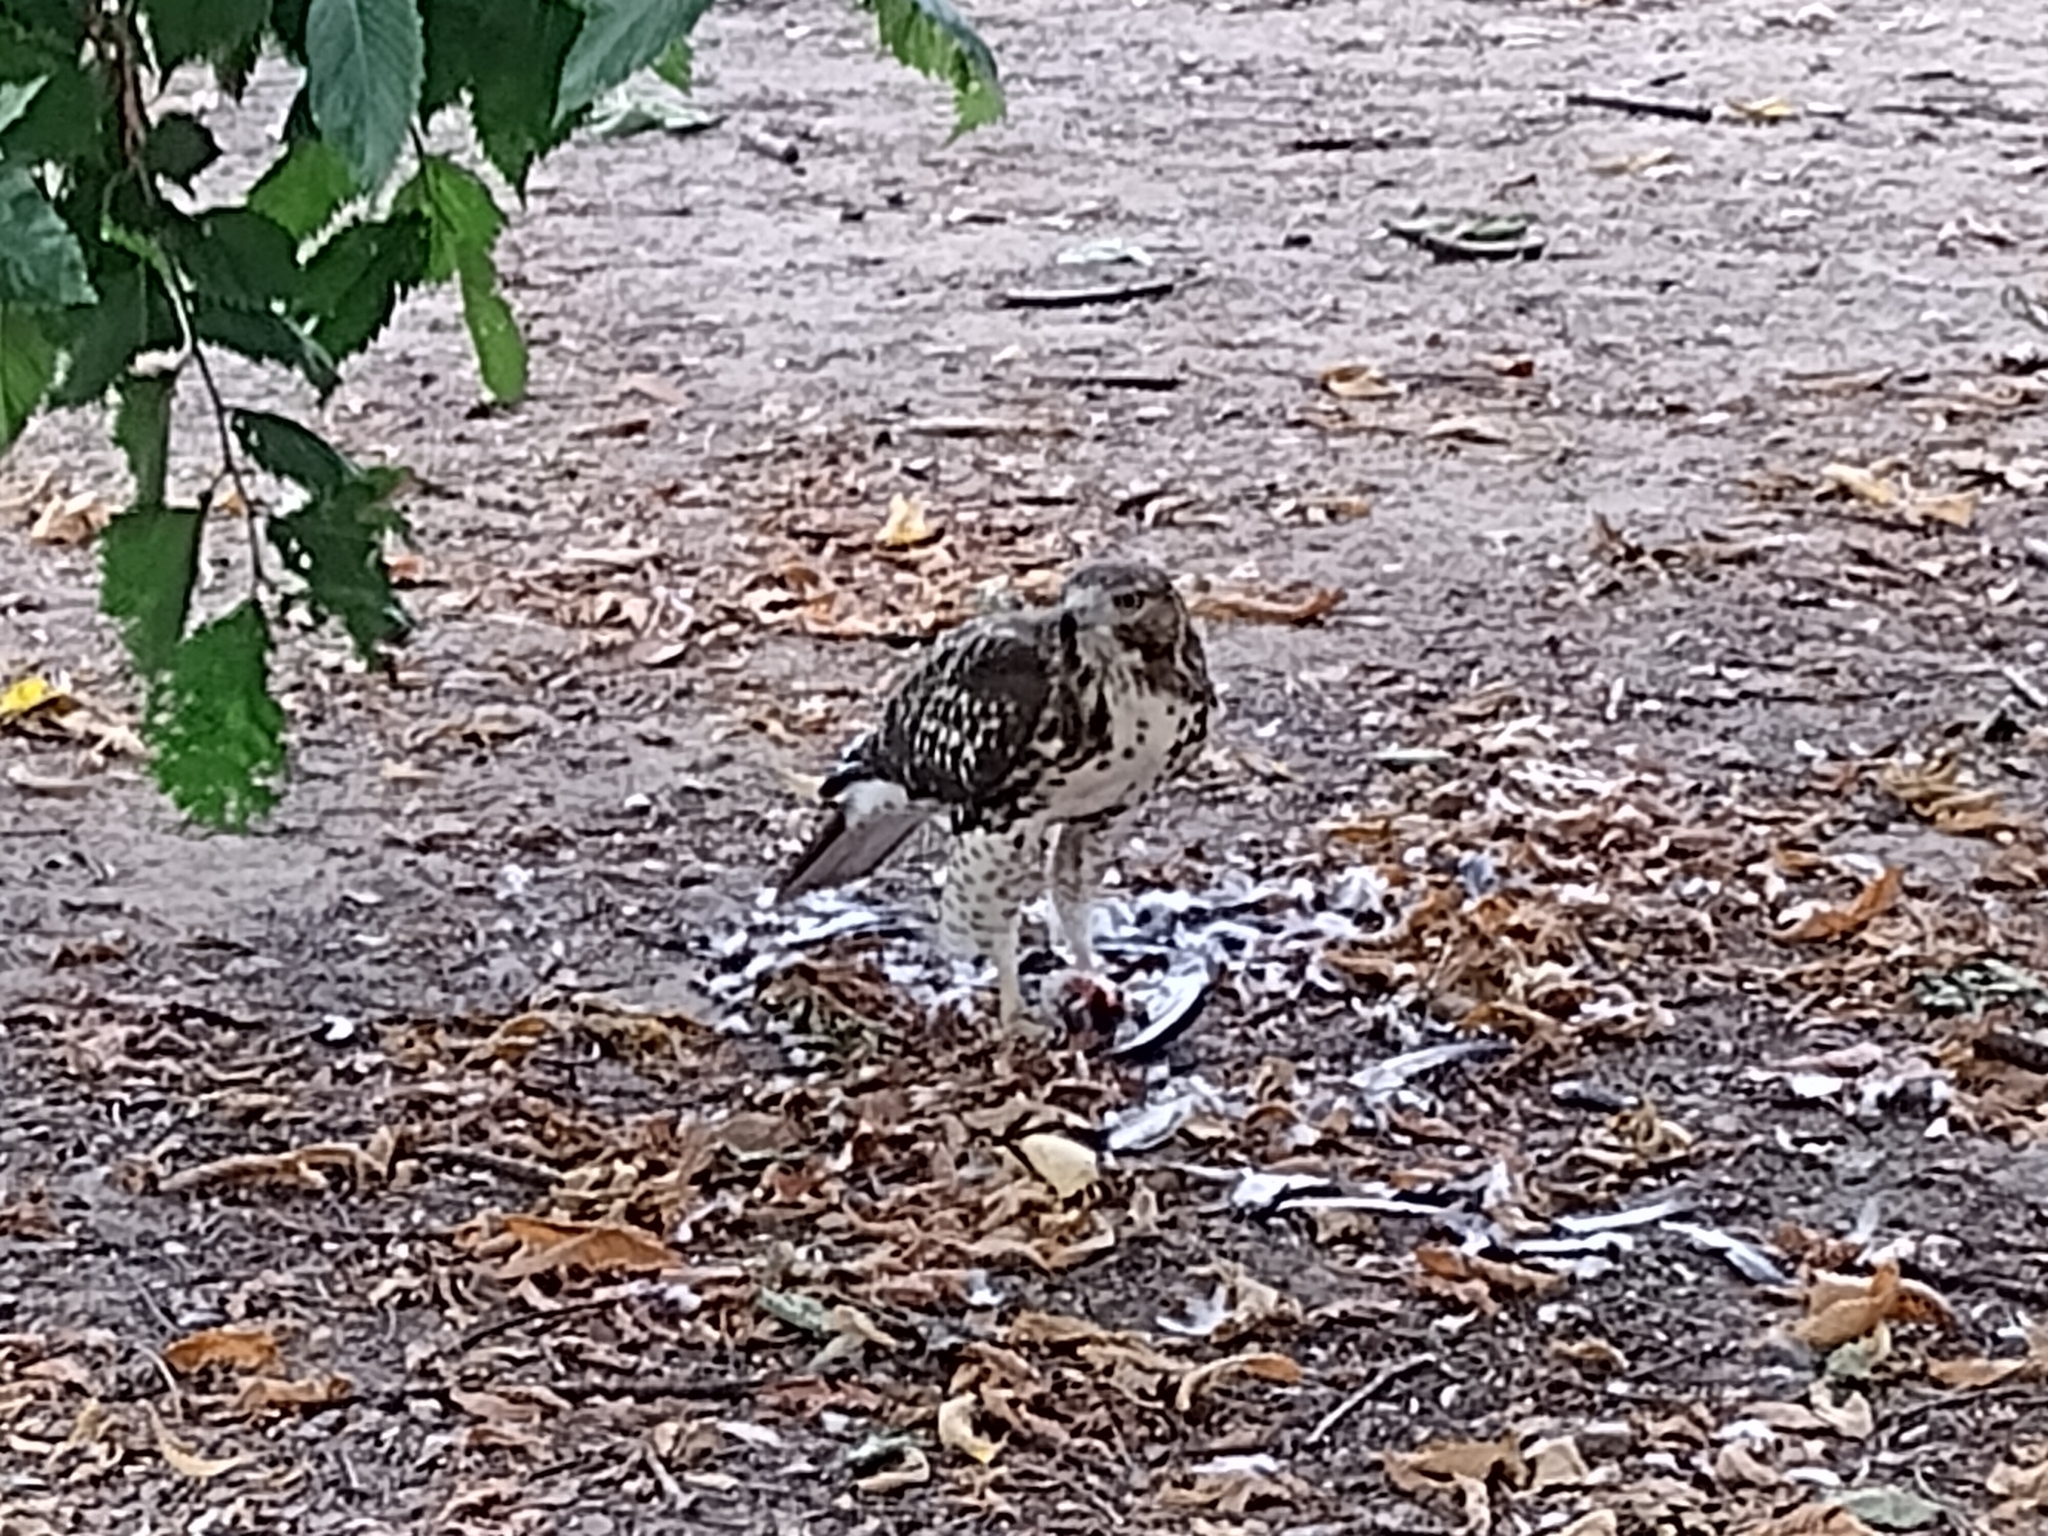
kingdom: Animalia
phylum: Chordata
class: Aves
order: Accipitriformes
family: Accipitridae
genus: Buteo
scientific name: Buteo jamaicensis
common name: Red-tailed hawk
